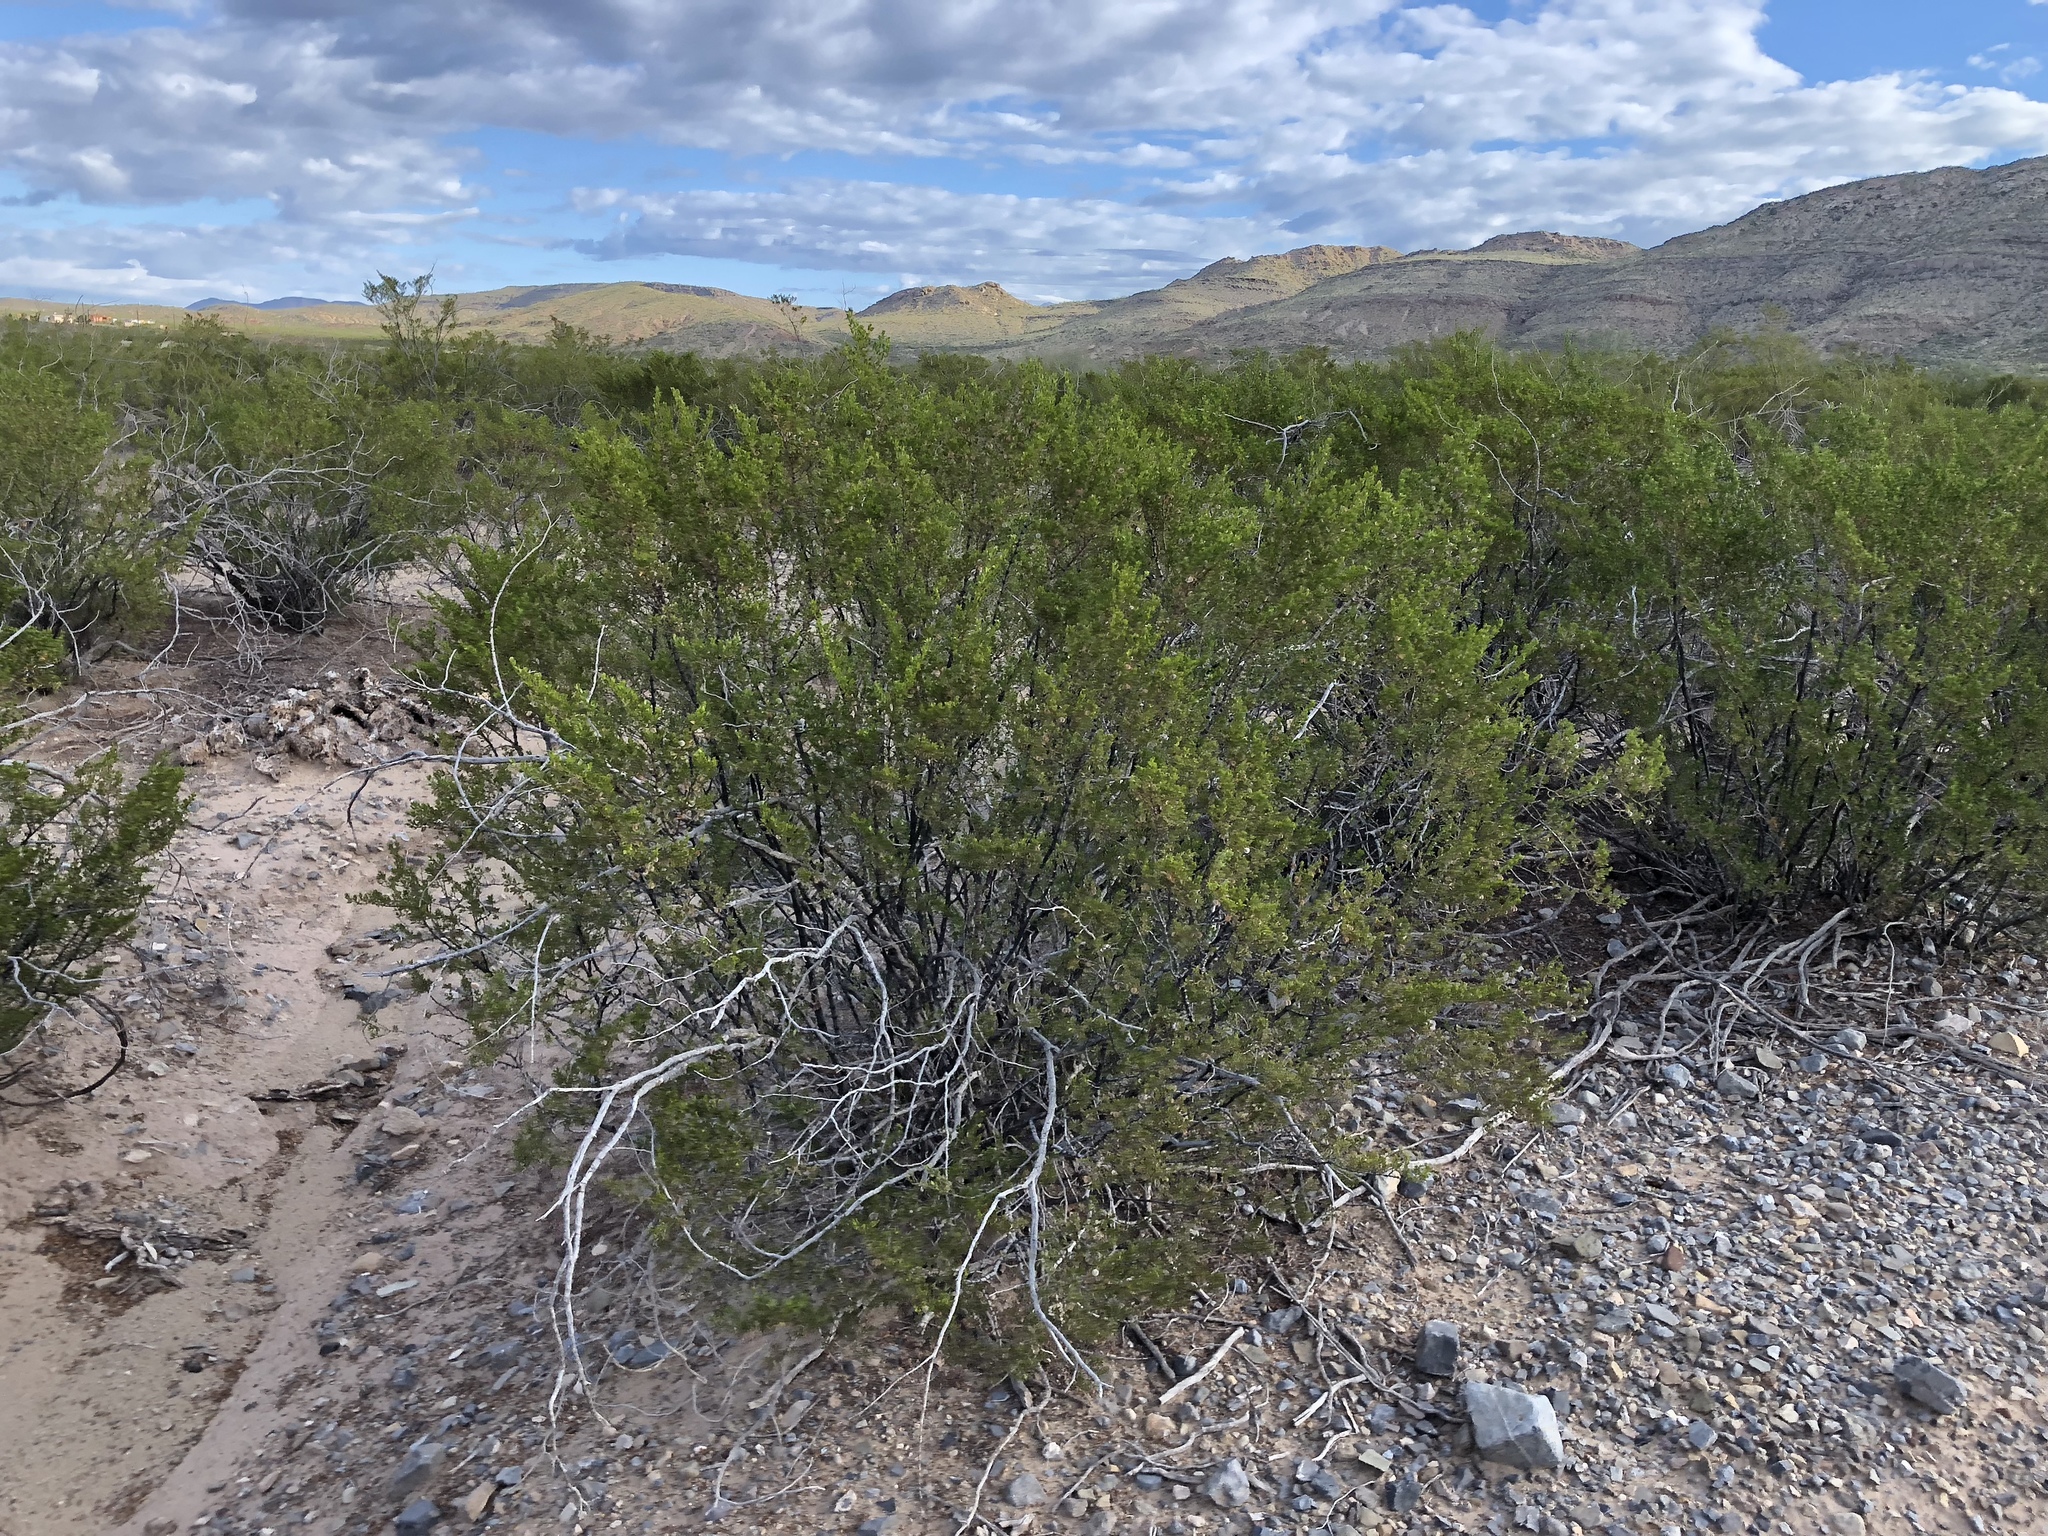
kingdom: Plantae
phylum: Tracheophyta
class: Magnoliopsida
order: Zygophyllales
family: Zygophyllaceae
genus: Larrea
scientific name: Larrea tridentata
